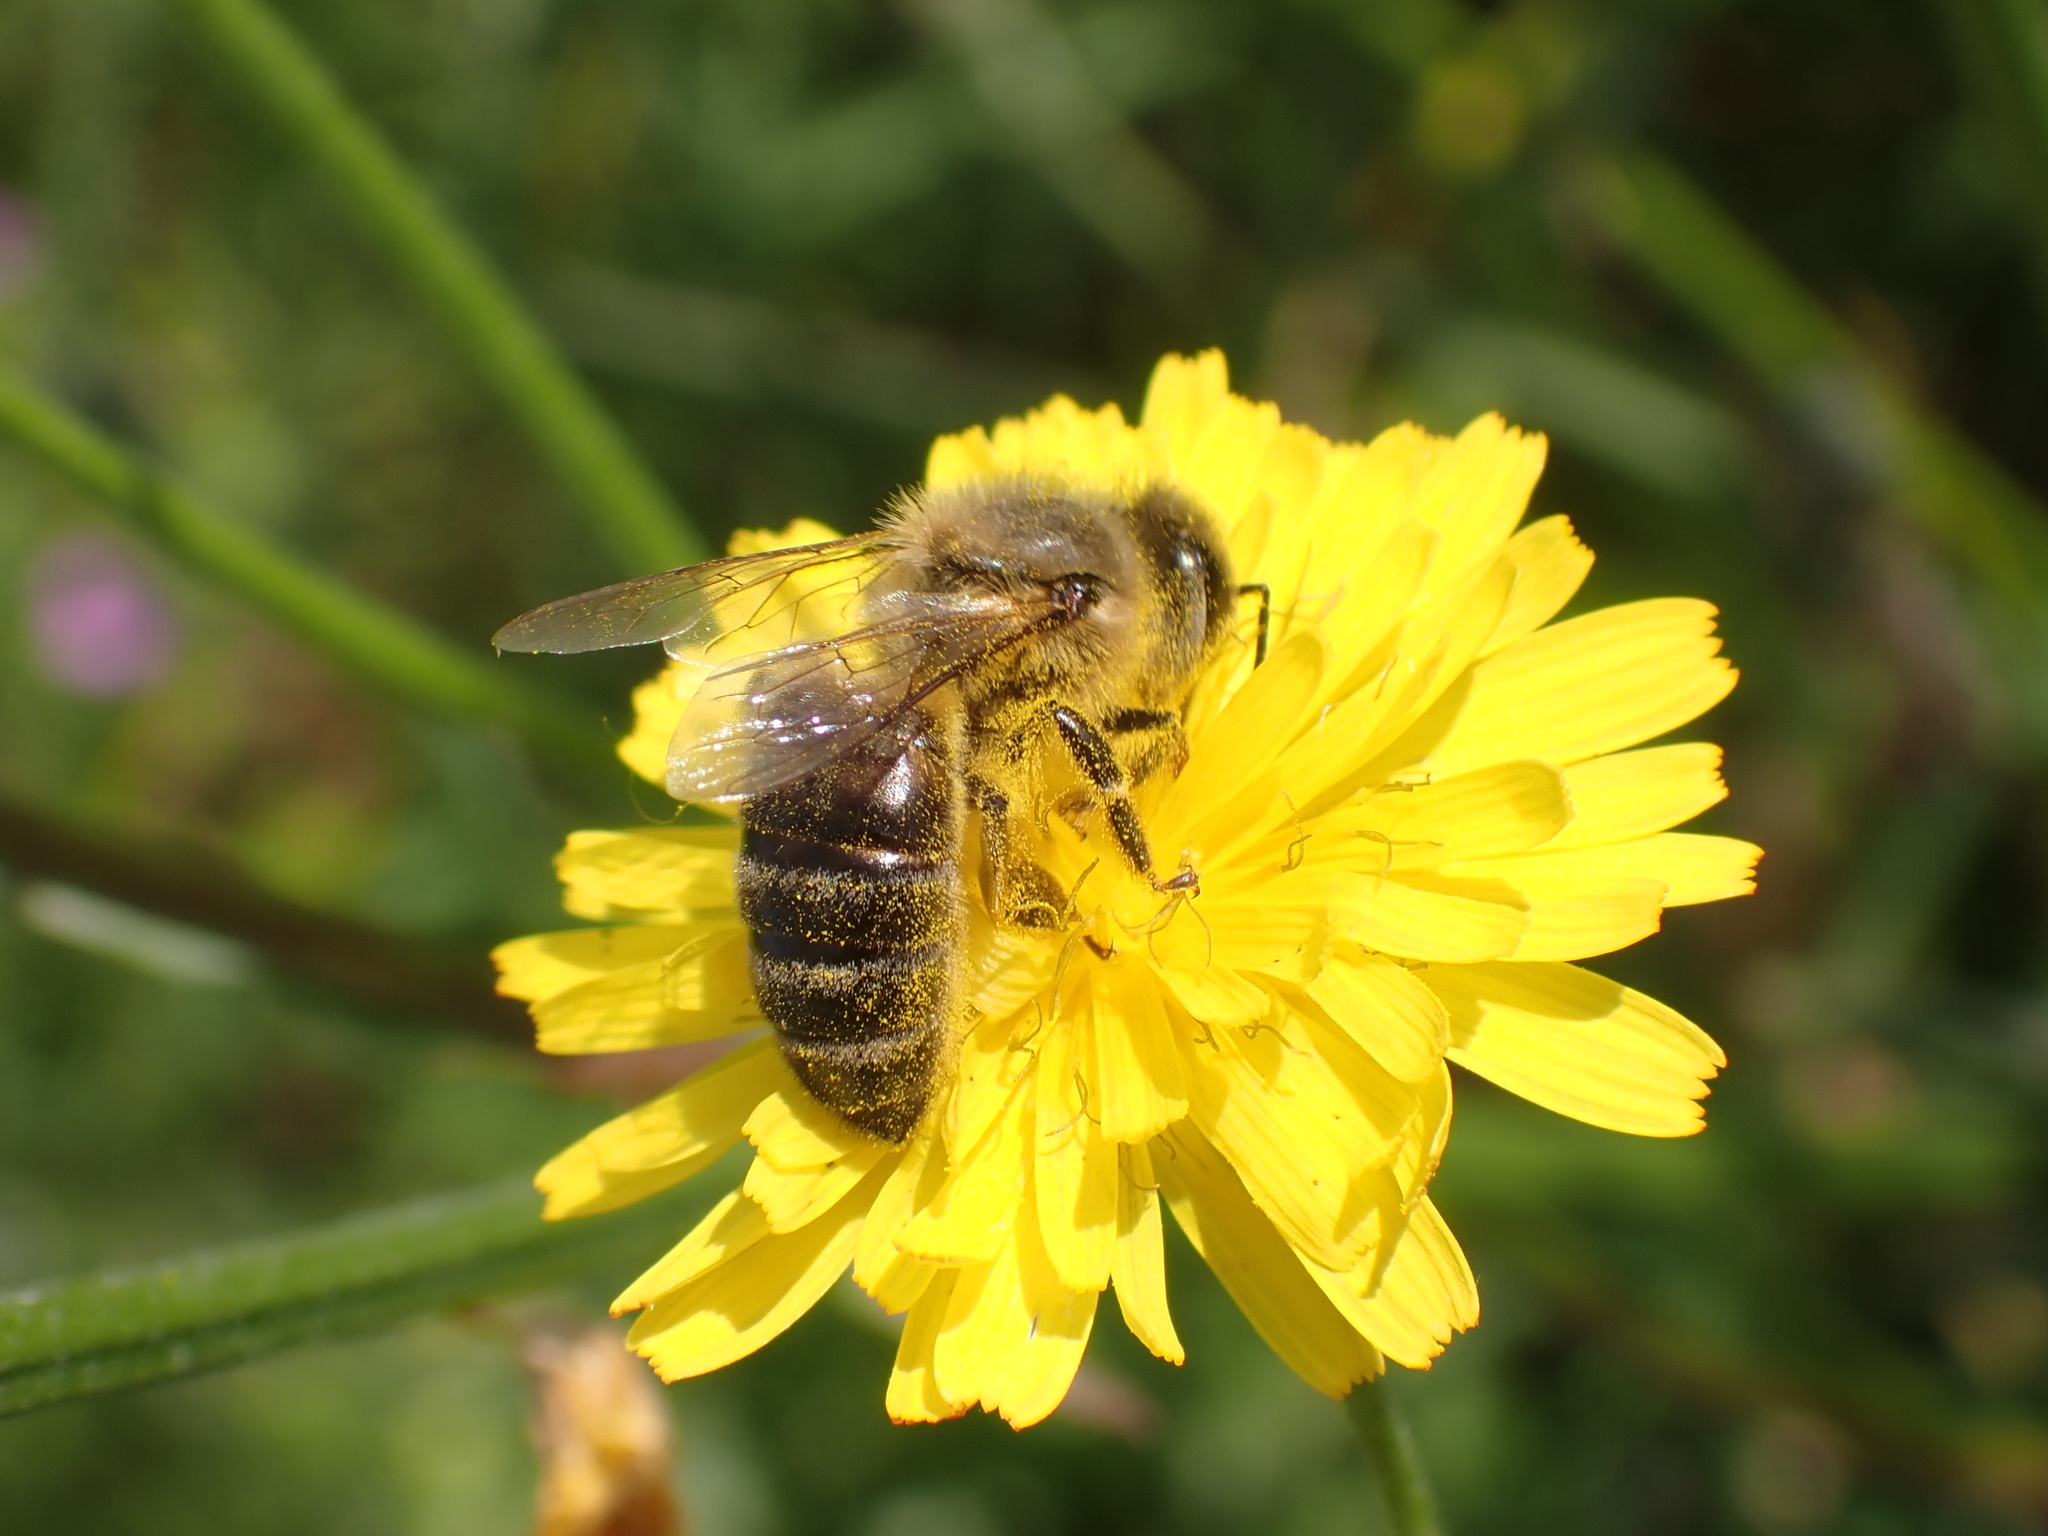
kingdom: Animalia
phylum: Arthropoda
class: Insecta
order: Hymenoptera
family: Apidae
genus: Apis
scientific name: Apis mellifera
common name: Honey bee
